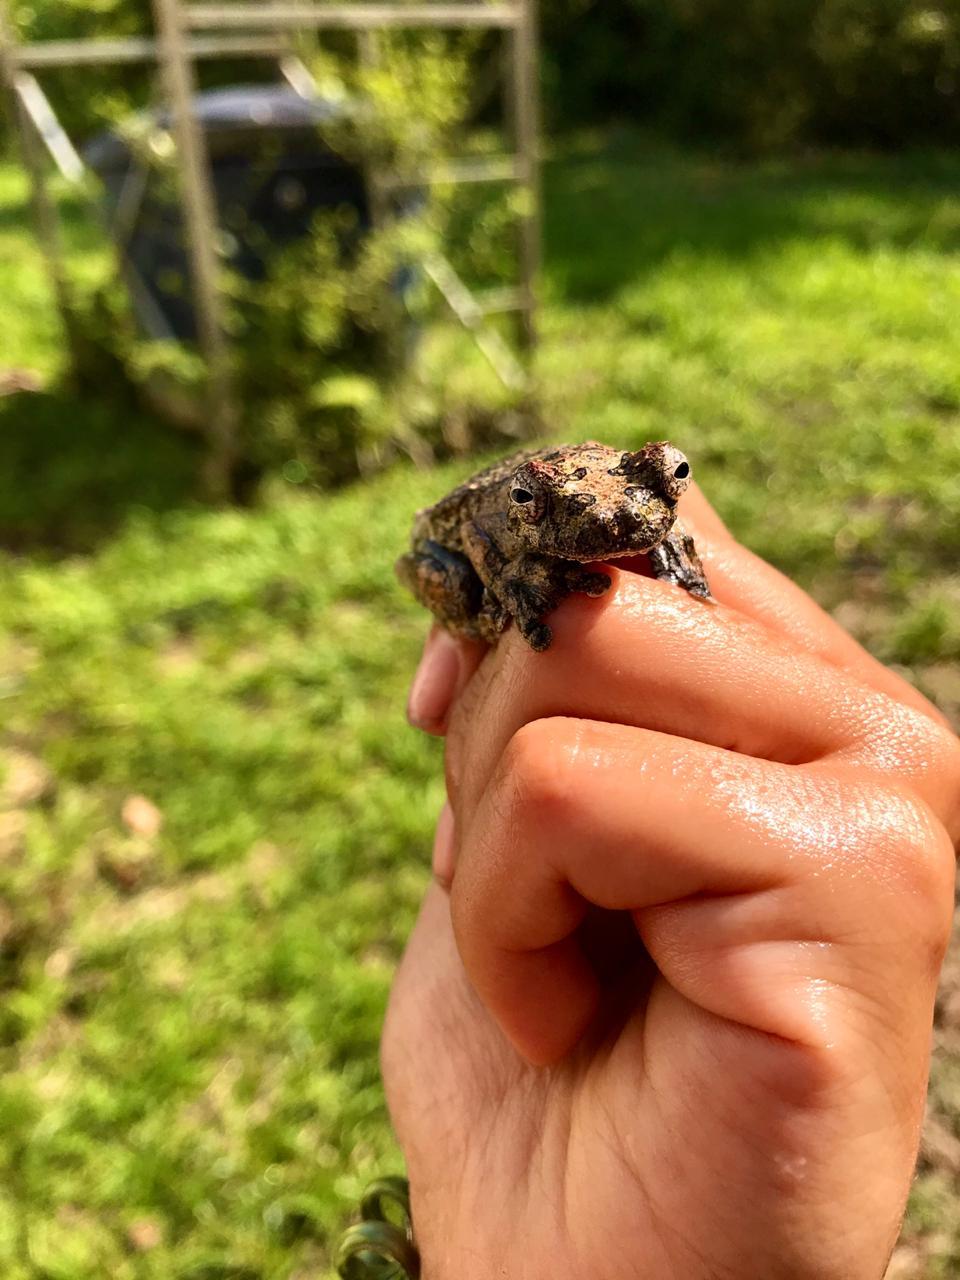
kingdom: Animalia
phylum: Chordata
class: Amphibia
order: Anura
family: Hylidae
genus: Dendropsophus
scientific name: Dendropsophus marmoratus
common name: Marbled treefrog
